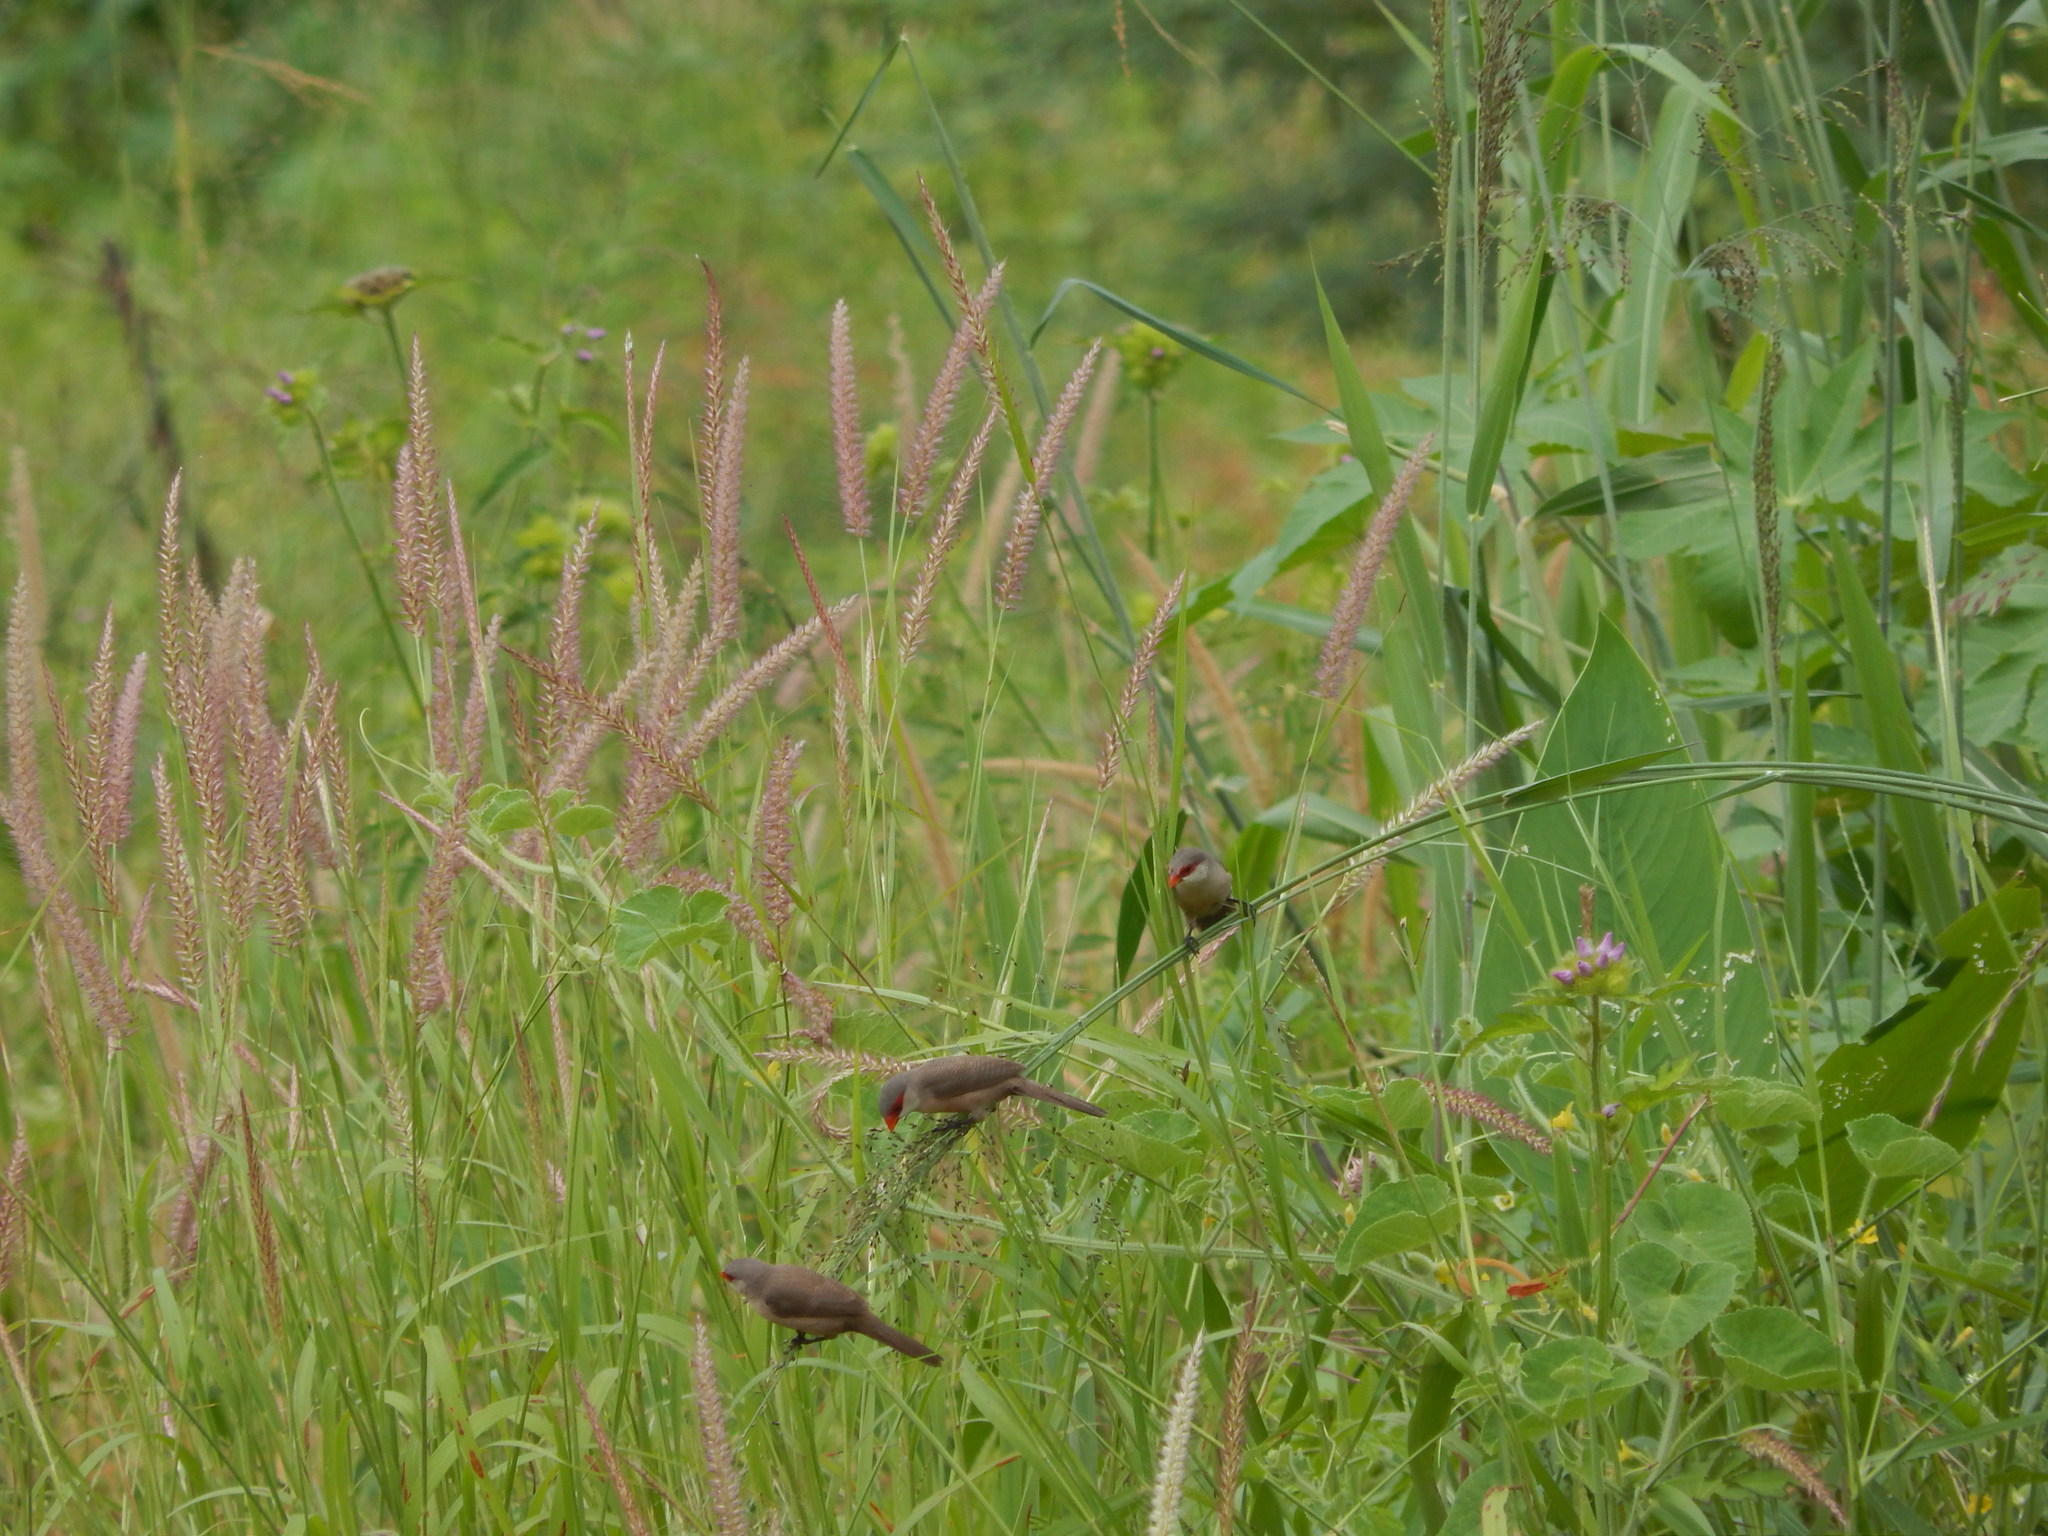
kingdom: Animalia
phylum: Chordata
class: Aves
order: Passeriformes
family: Estrildidae
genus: Estrilda
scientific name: Estrilda astrild
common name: Common waxbill
